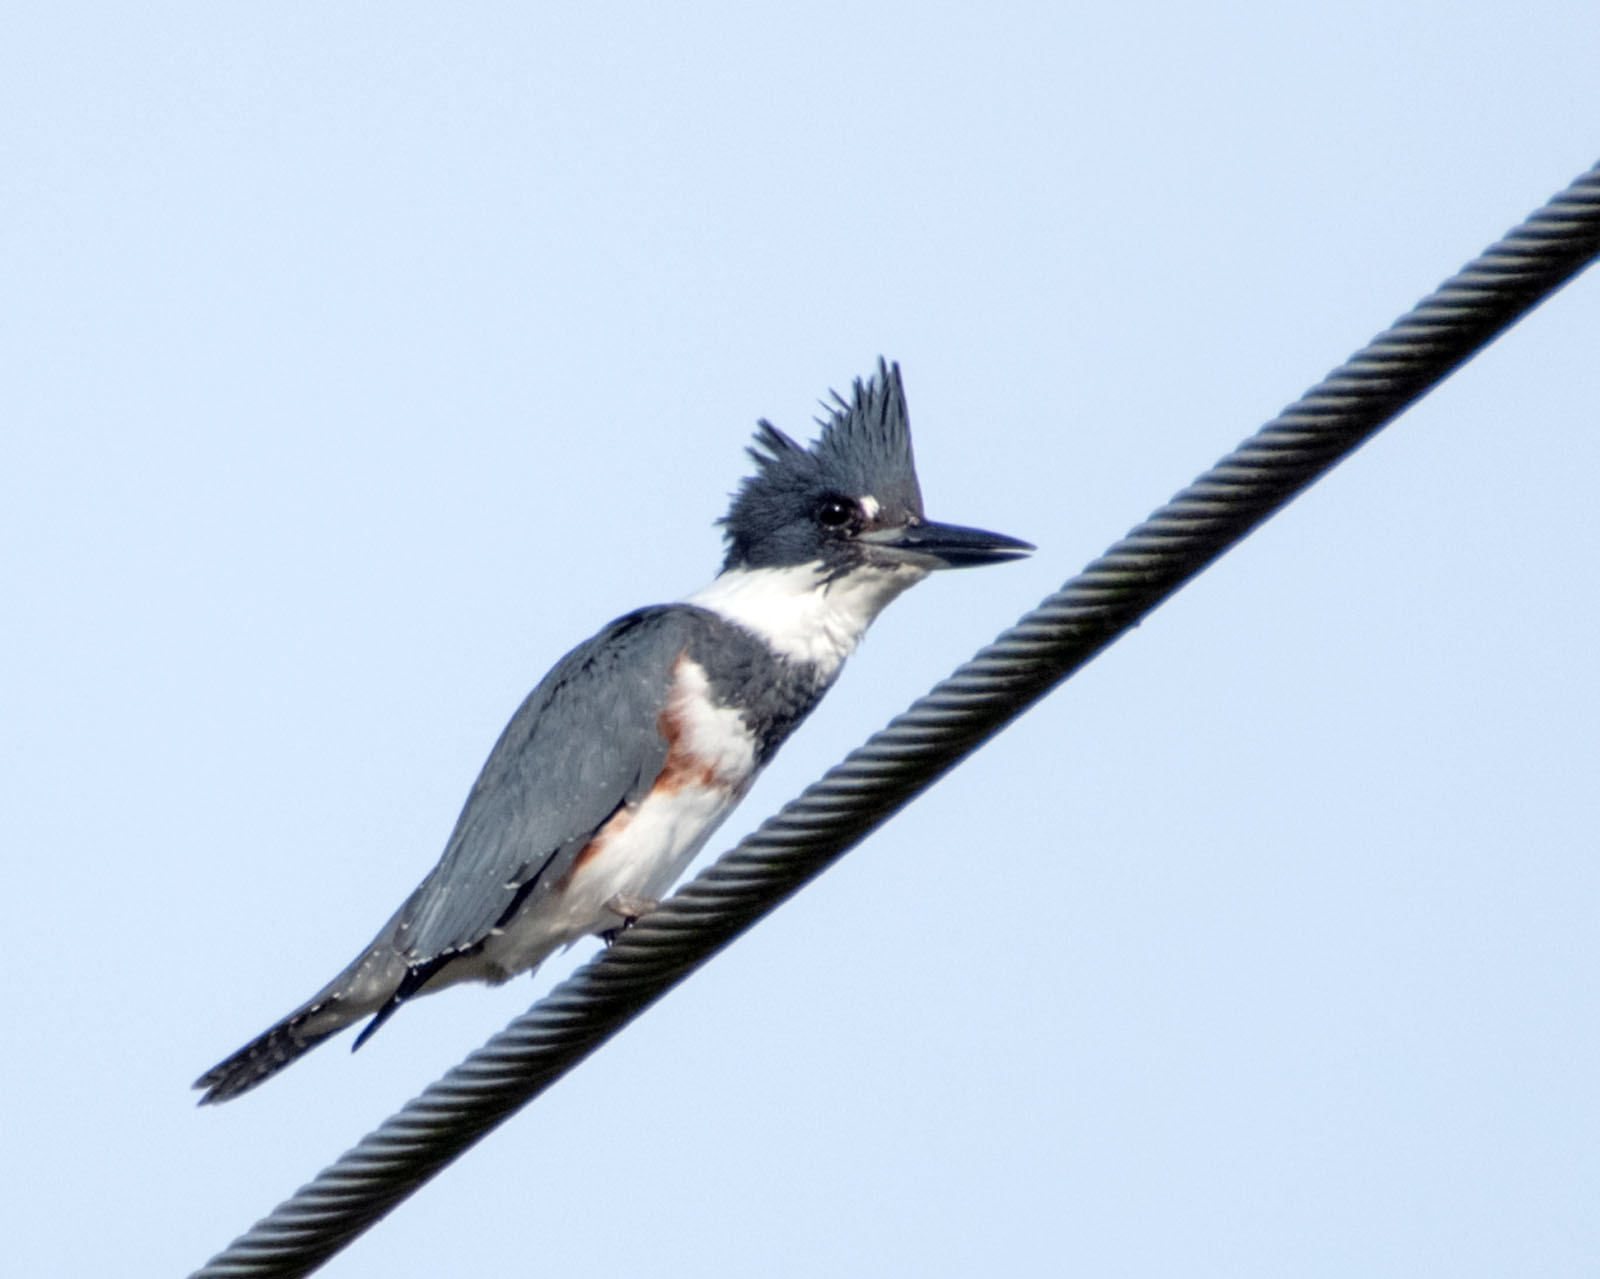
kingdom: Animalia
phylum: Chordata
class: Aves
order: Coraciiformes
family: Alcedinidae
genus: Megaceryle
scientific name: Megaceryle alcyon
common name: Belted kingfisher
